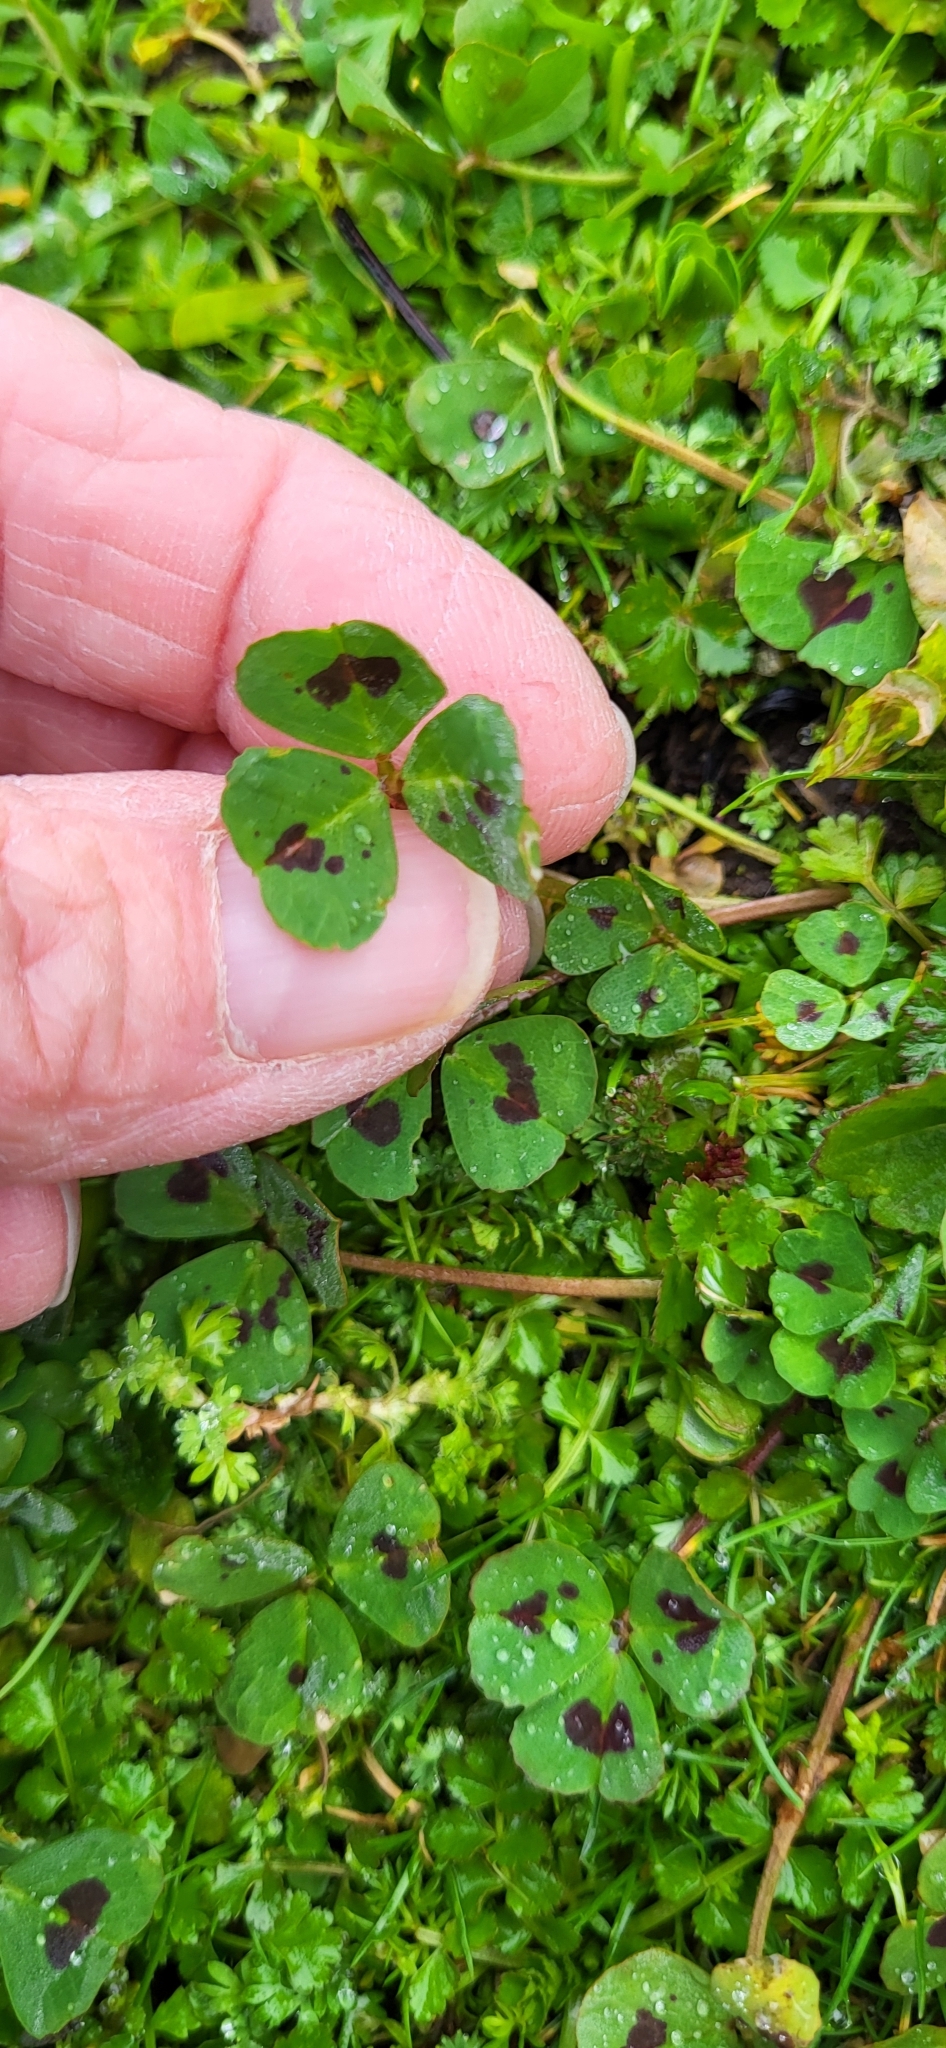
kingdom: Plantae
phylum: Tracheophyta
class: Magnoliopsida
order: Fabales
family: Fabaceae
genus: Medicago
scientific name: Medicago arabica
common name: Spotted medick
